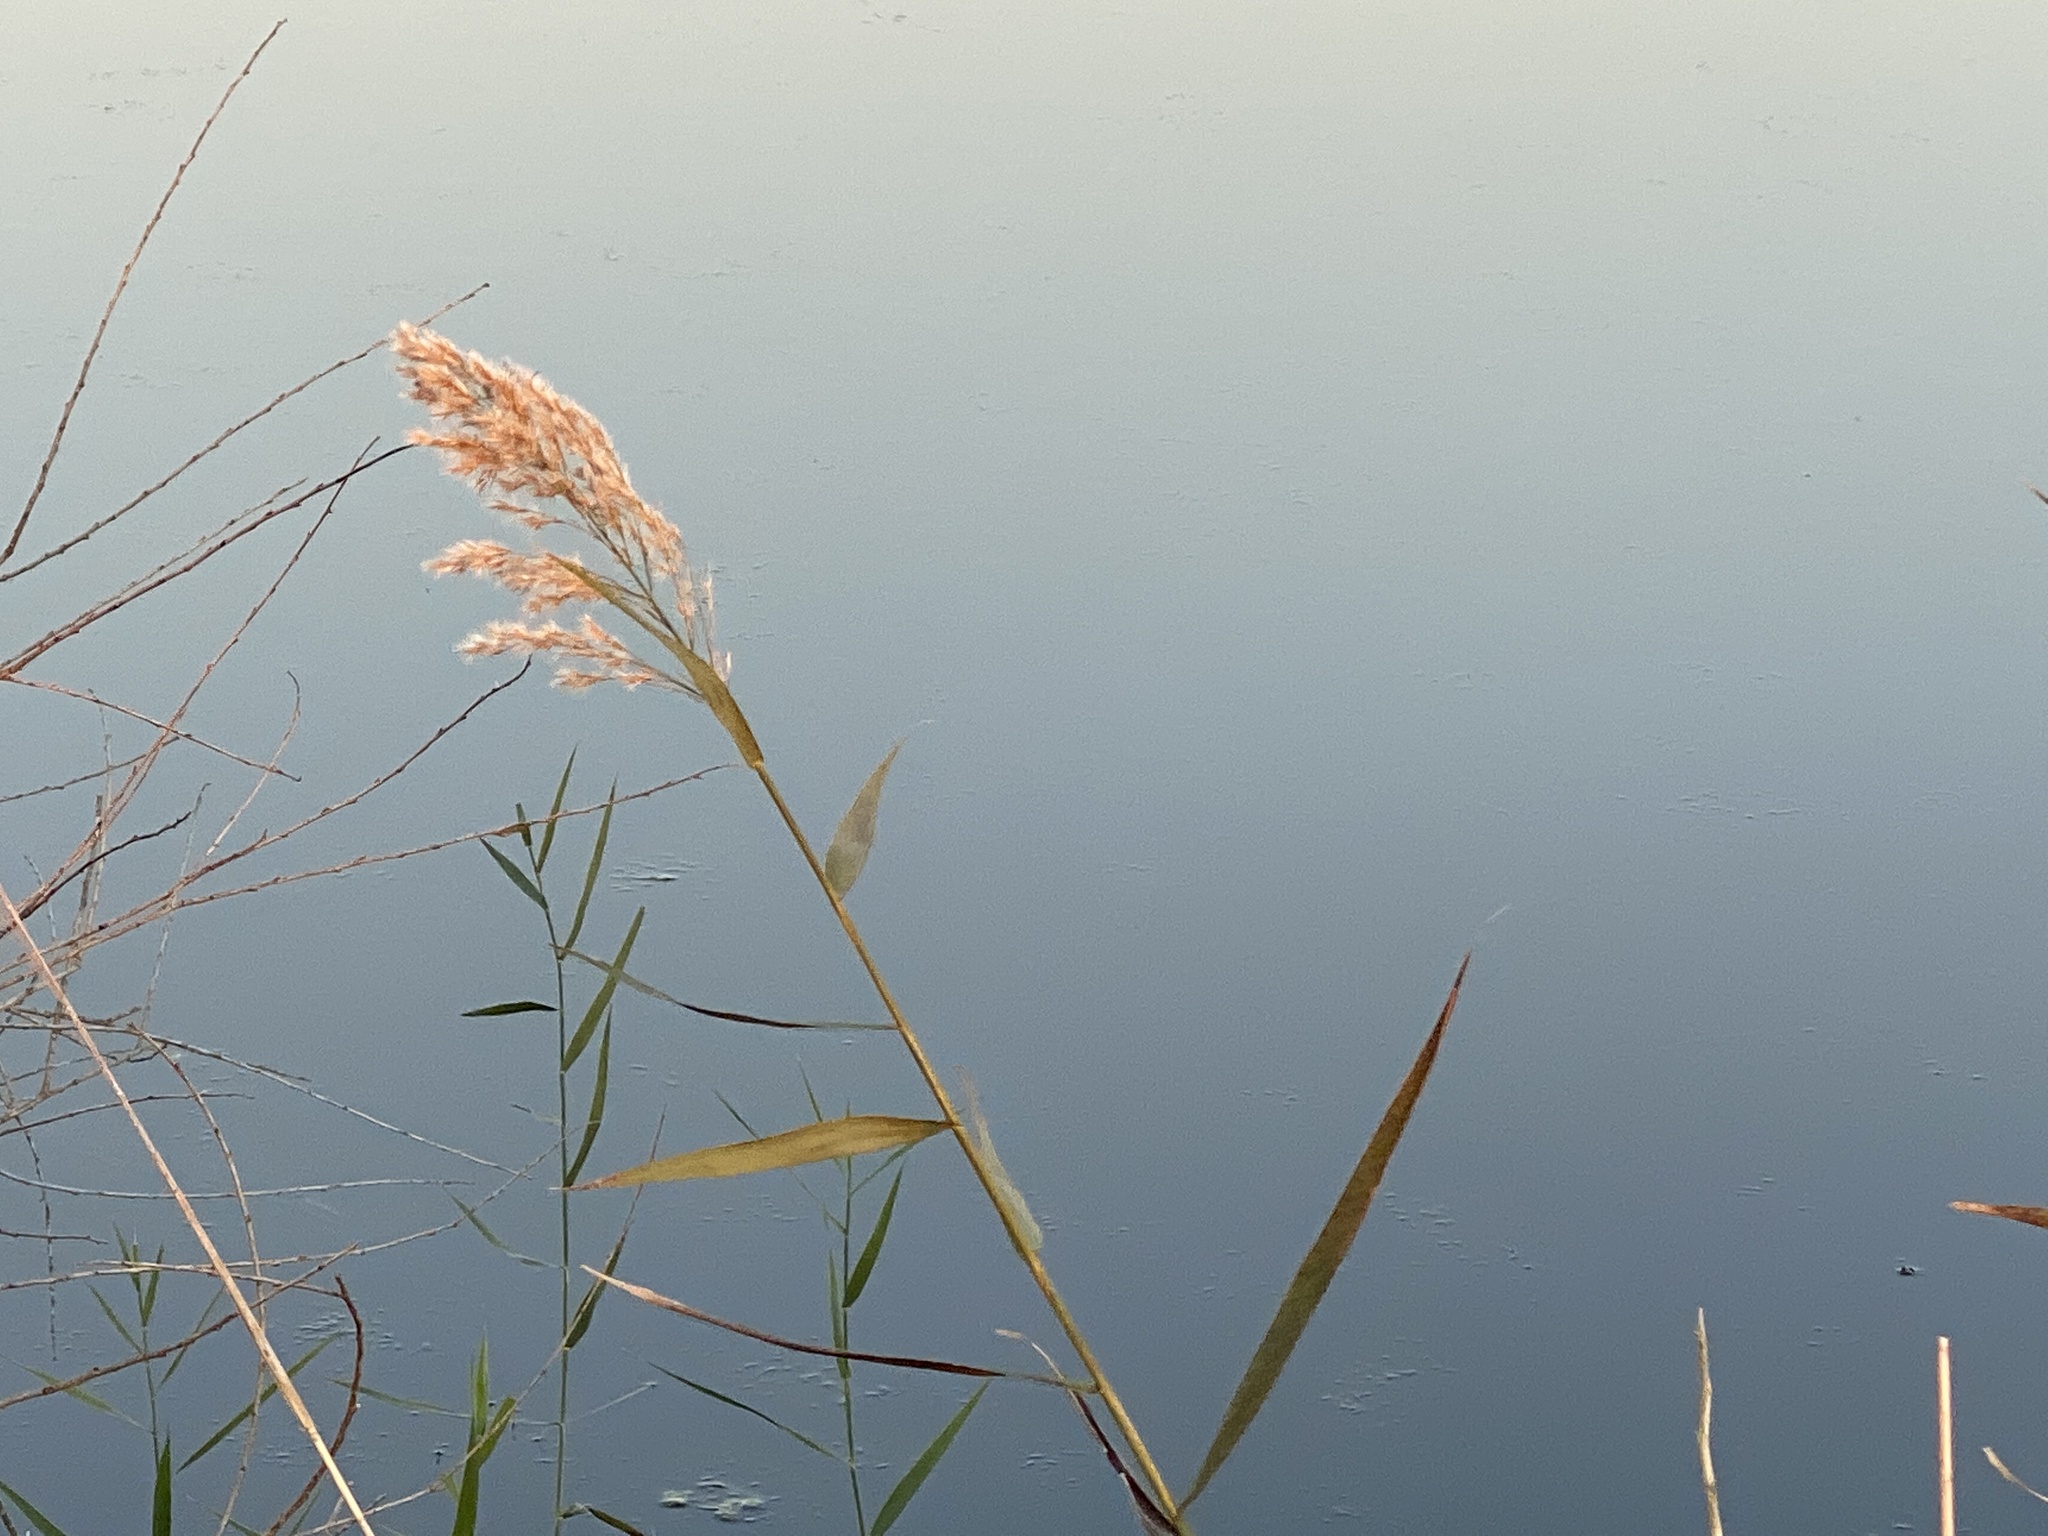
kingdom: Plantae
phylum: Tracheophyta
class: Liliopsida
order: Poales
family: Poaceae
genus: Phragmites
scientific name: Phragmites australis
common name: Common reed
